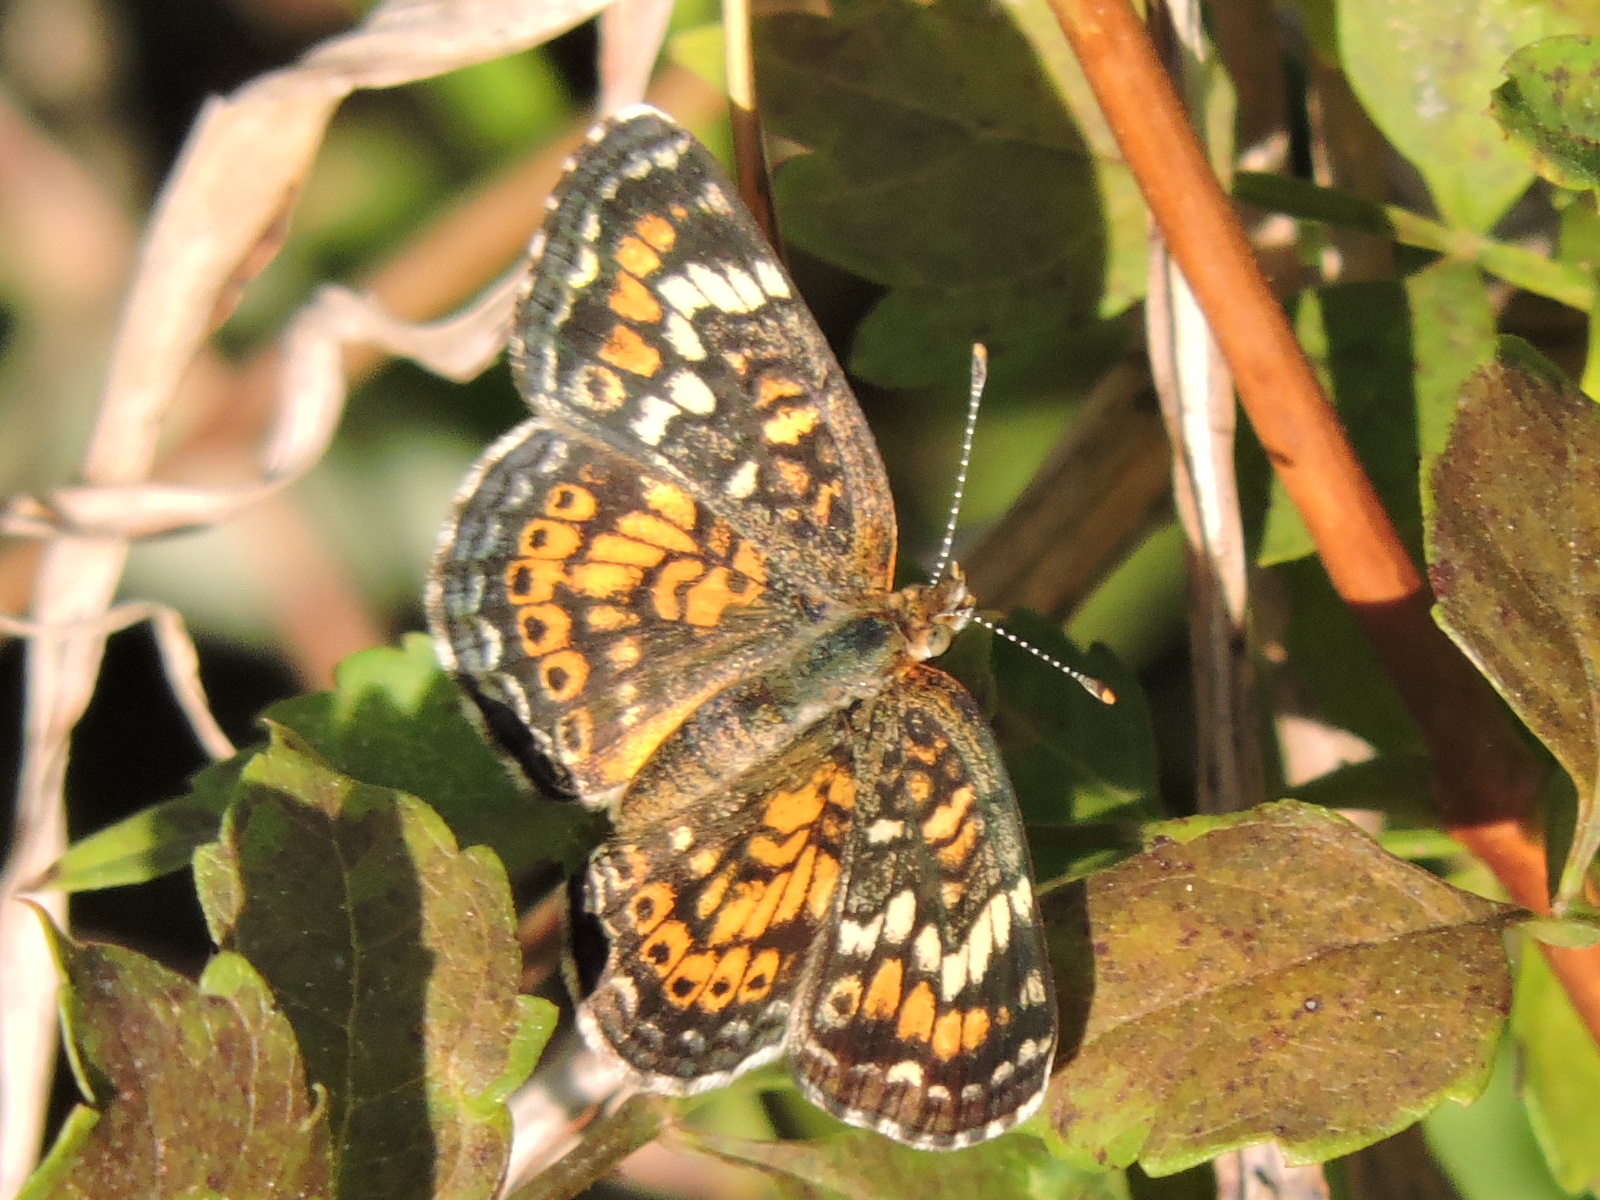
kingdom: Animalia
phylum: Arthropoda
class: Insecta
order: Lepidoptera
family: Nymphalidae
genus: Phyciodes
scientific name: Phyciodes phaon
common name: Phaon crescent
